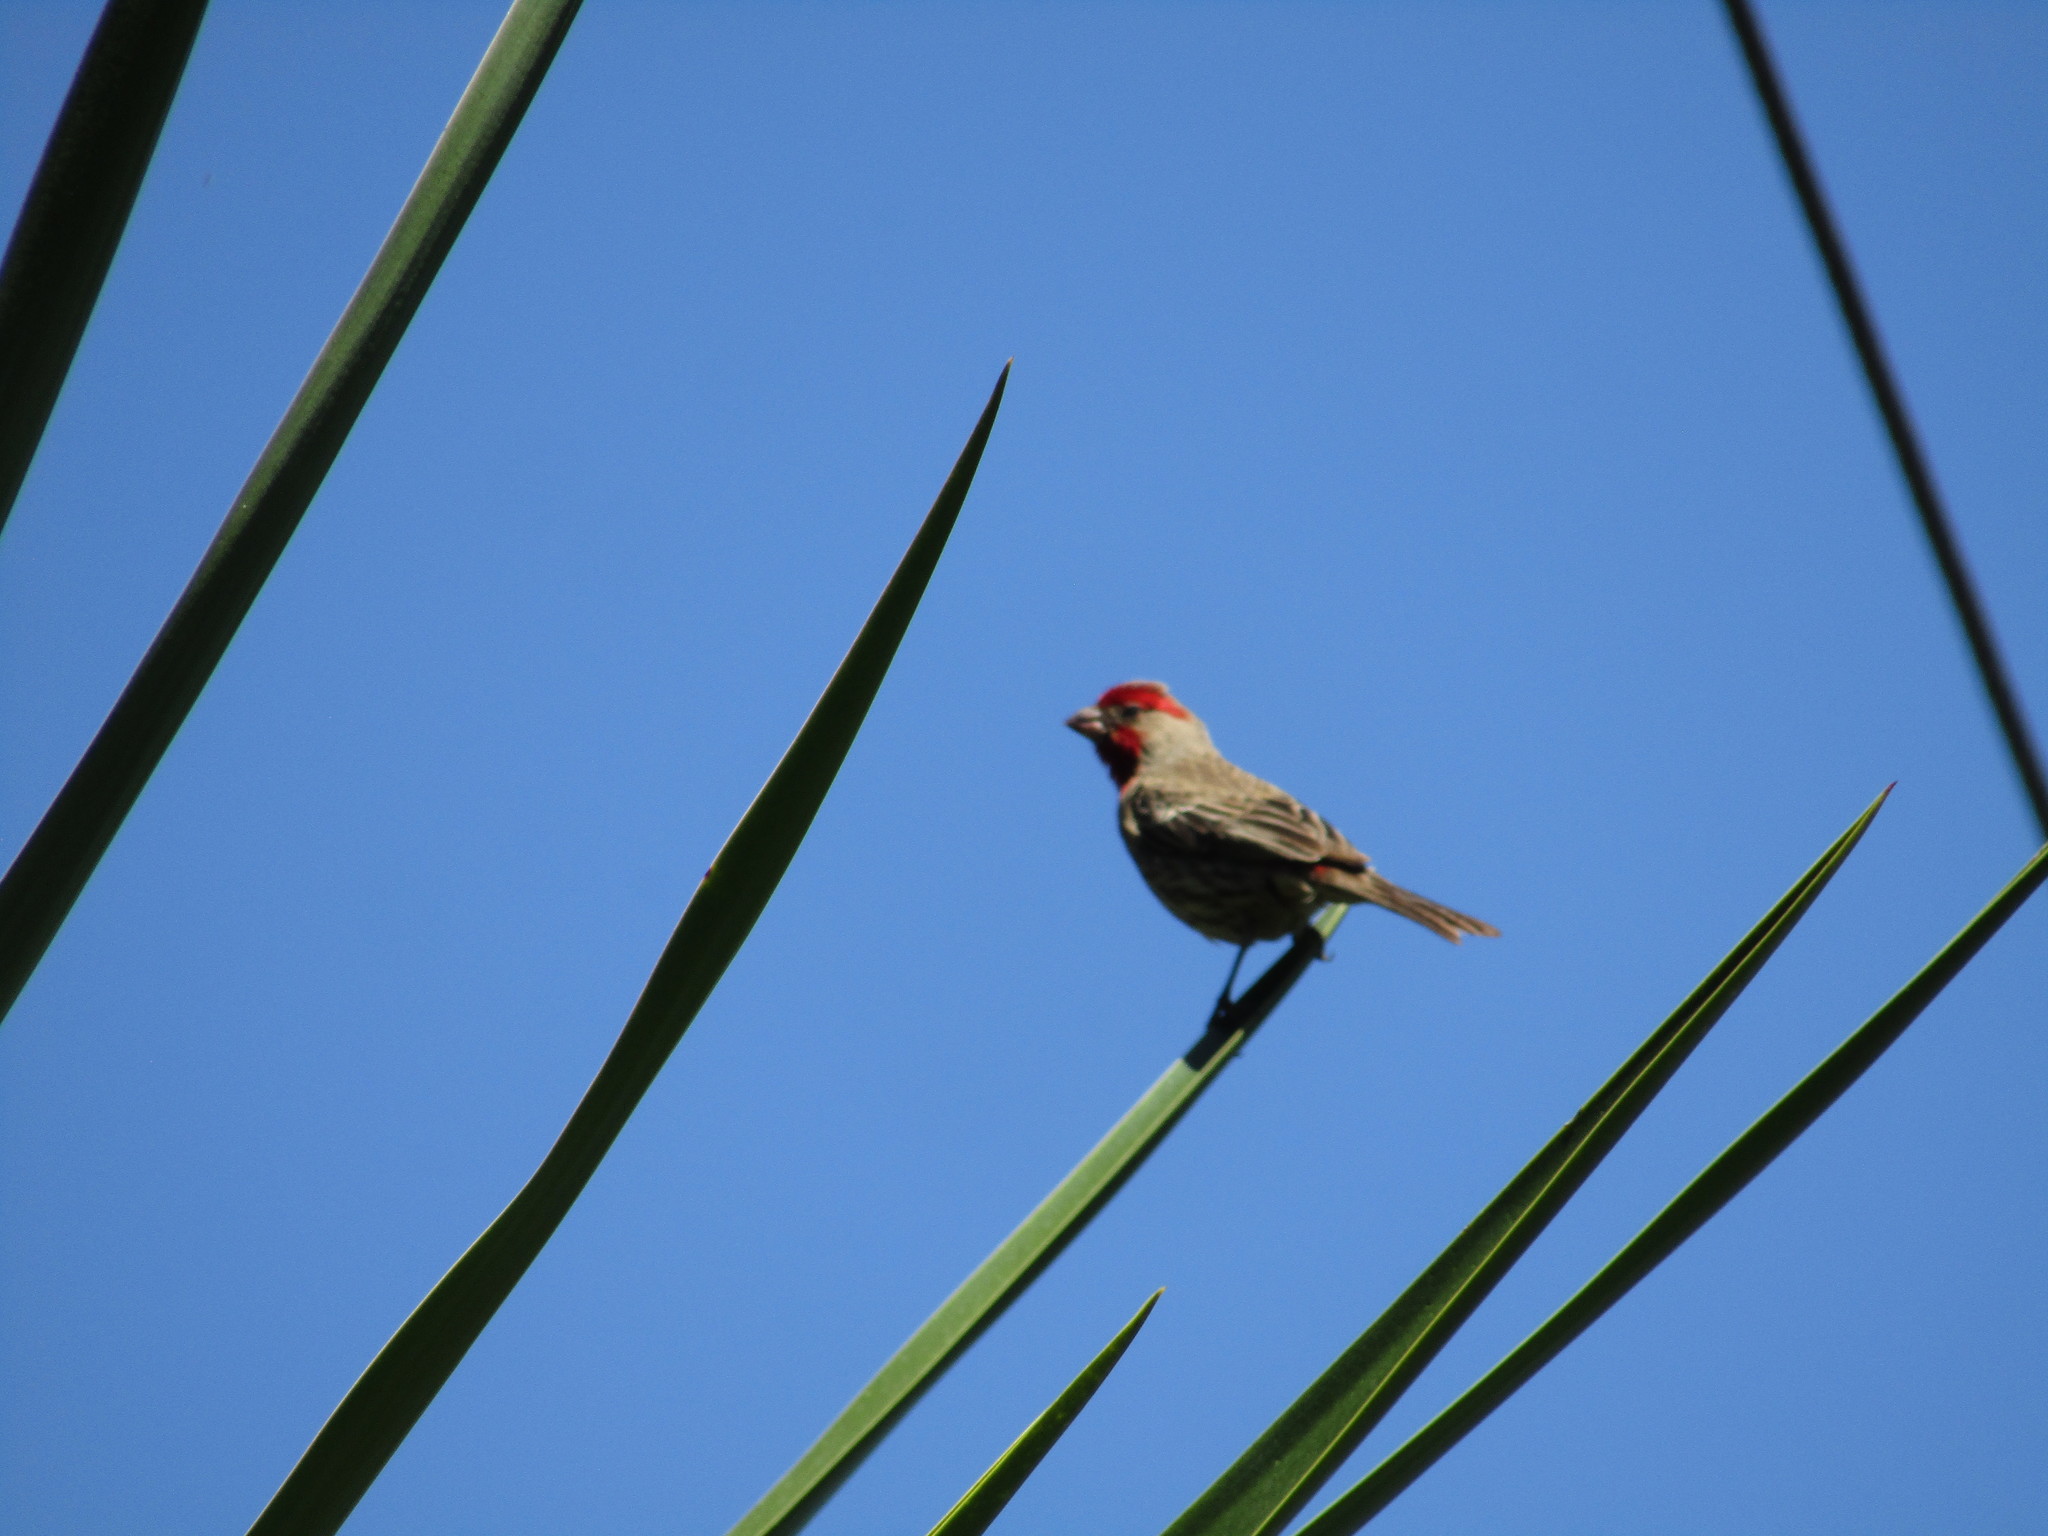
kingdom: Animalia
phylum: Chordata
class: Aves
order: Passeriformes
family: Fringillidae
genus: Haemorhous
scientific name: Haemorhous mexicanus
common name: House finch
